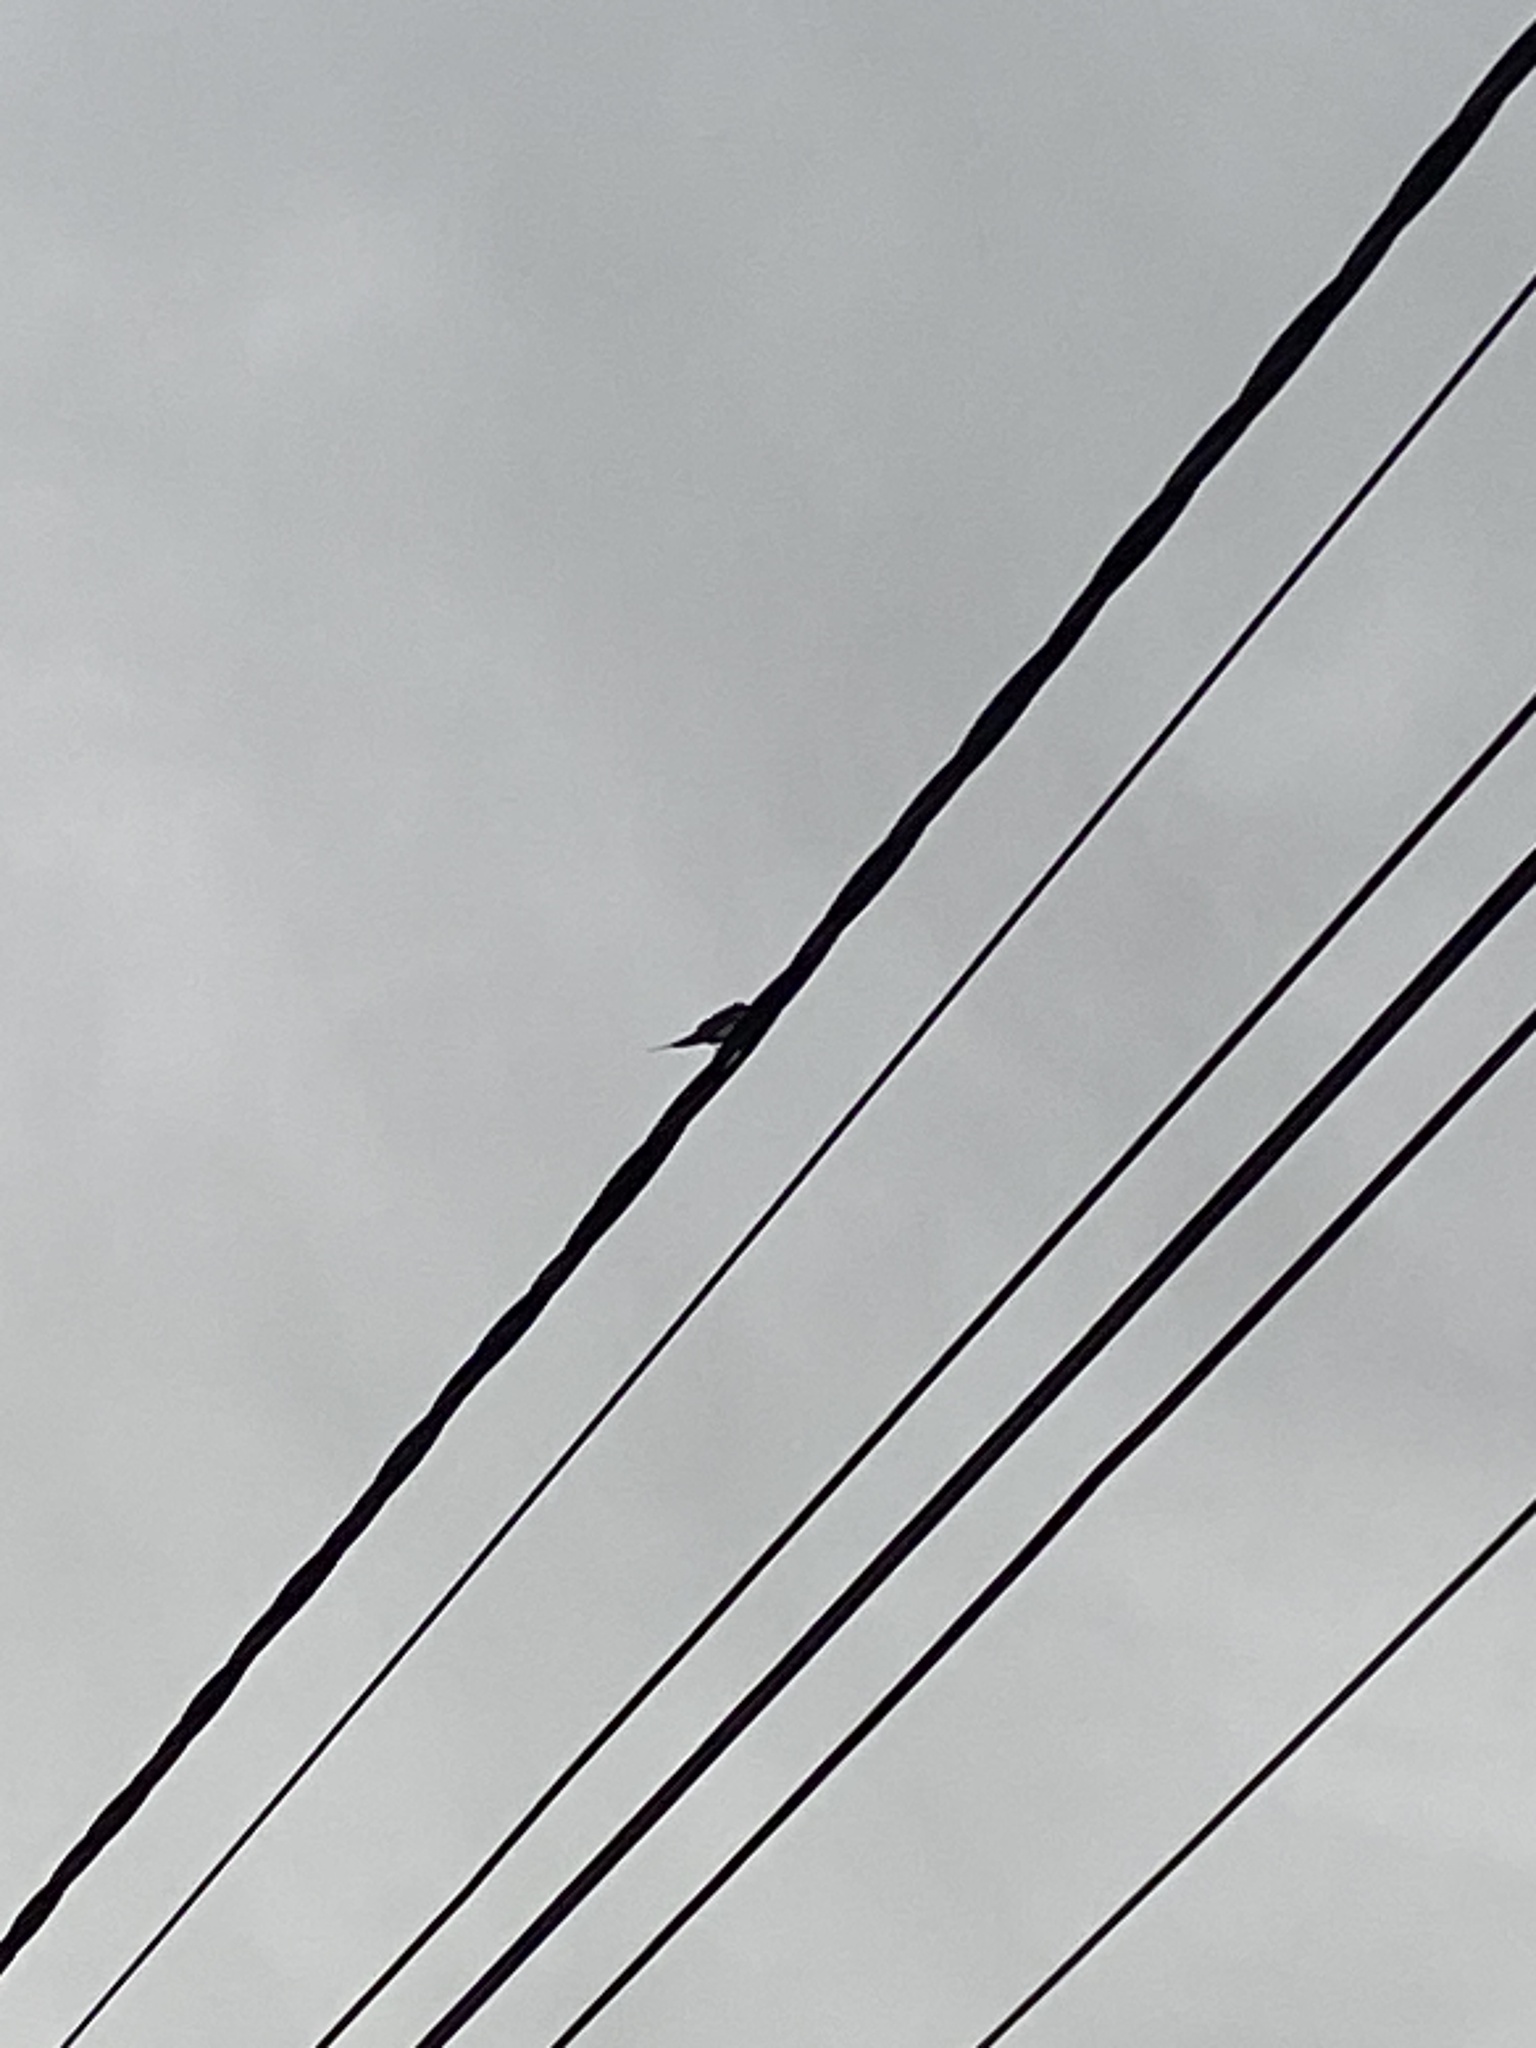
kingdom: Animalia
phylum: Chordata
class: Aves
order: Passeriformes
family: Hirundinidae
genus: Hirundo
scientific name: Hirundo rustica
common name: Barn swallow
